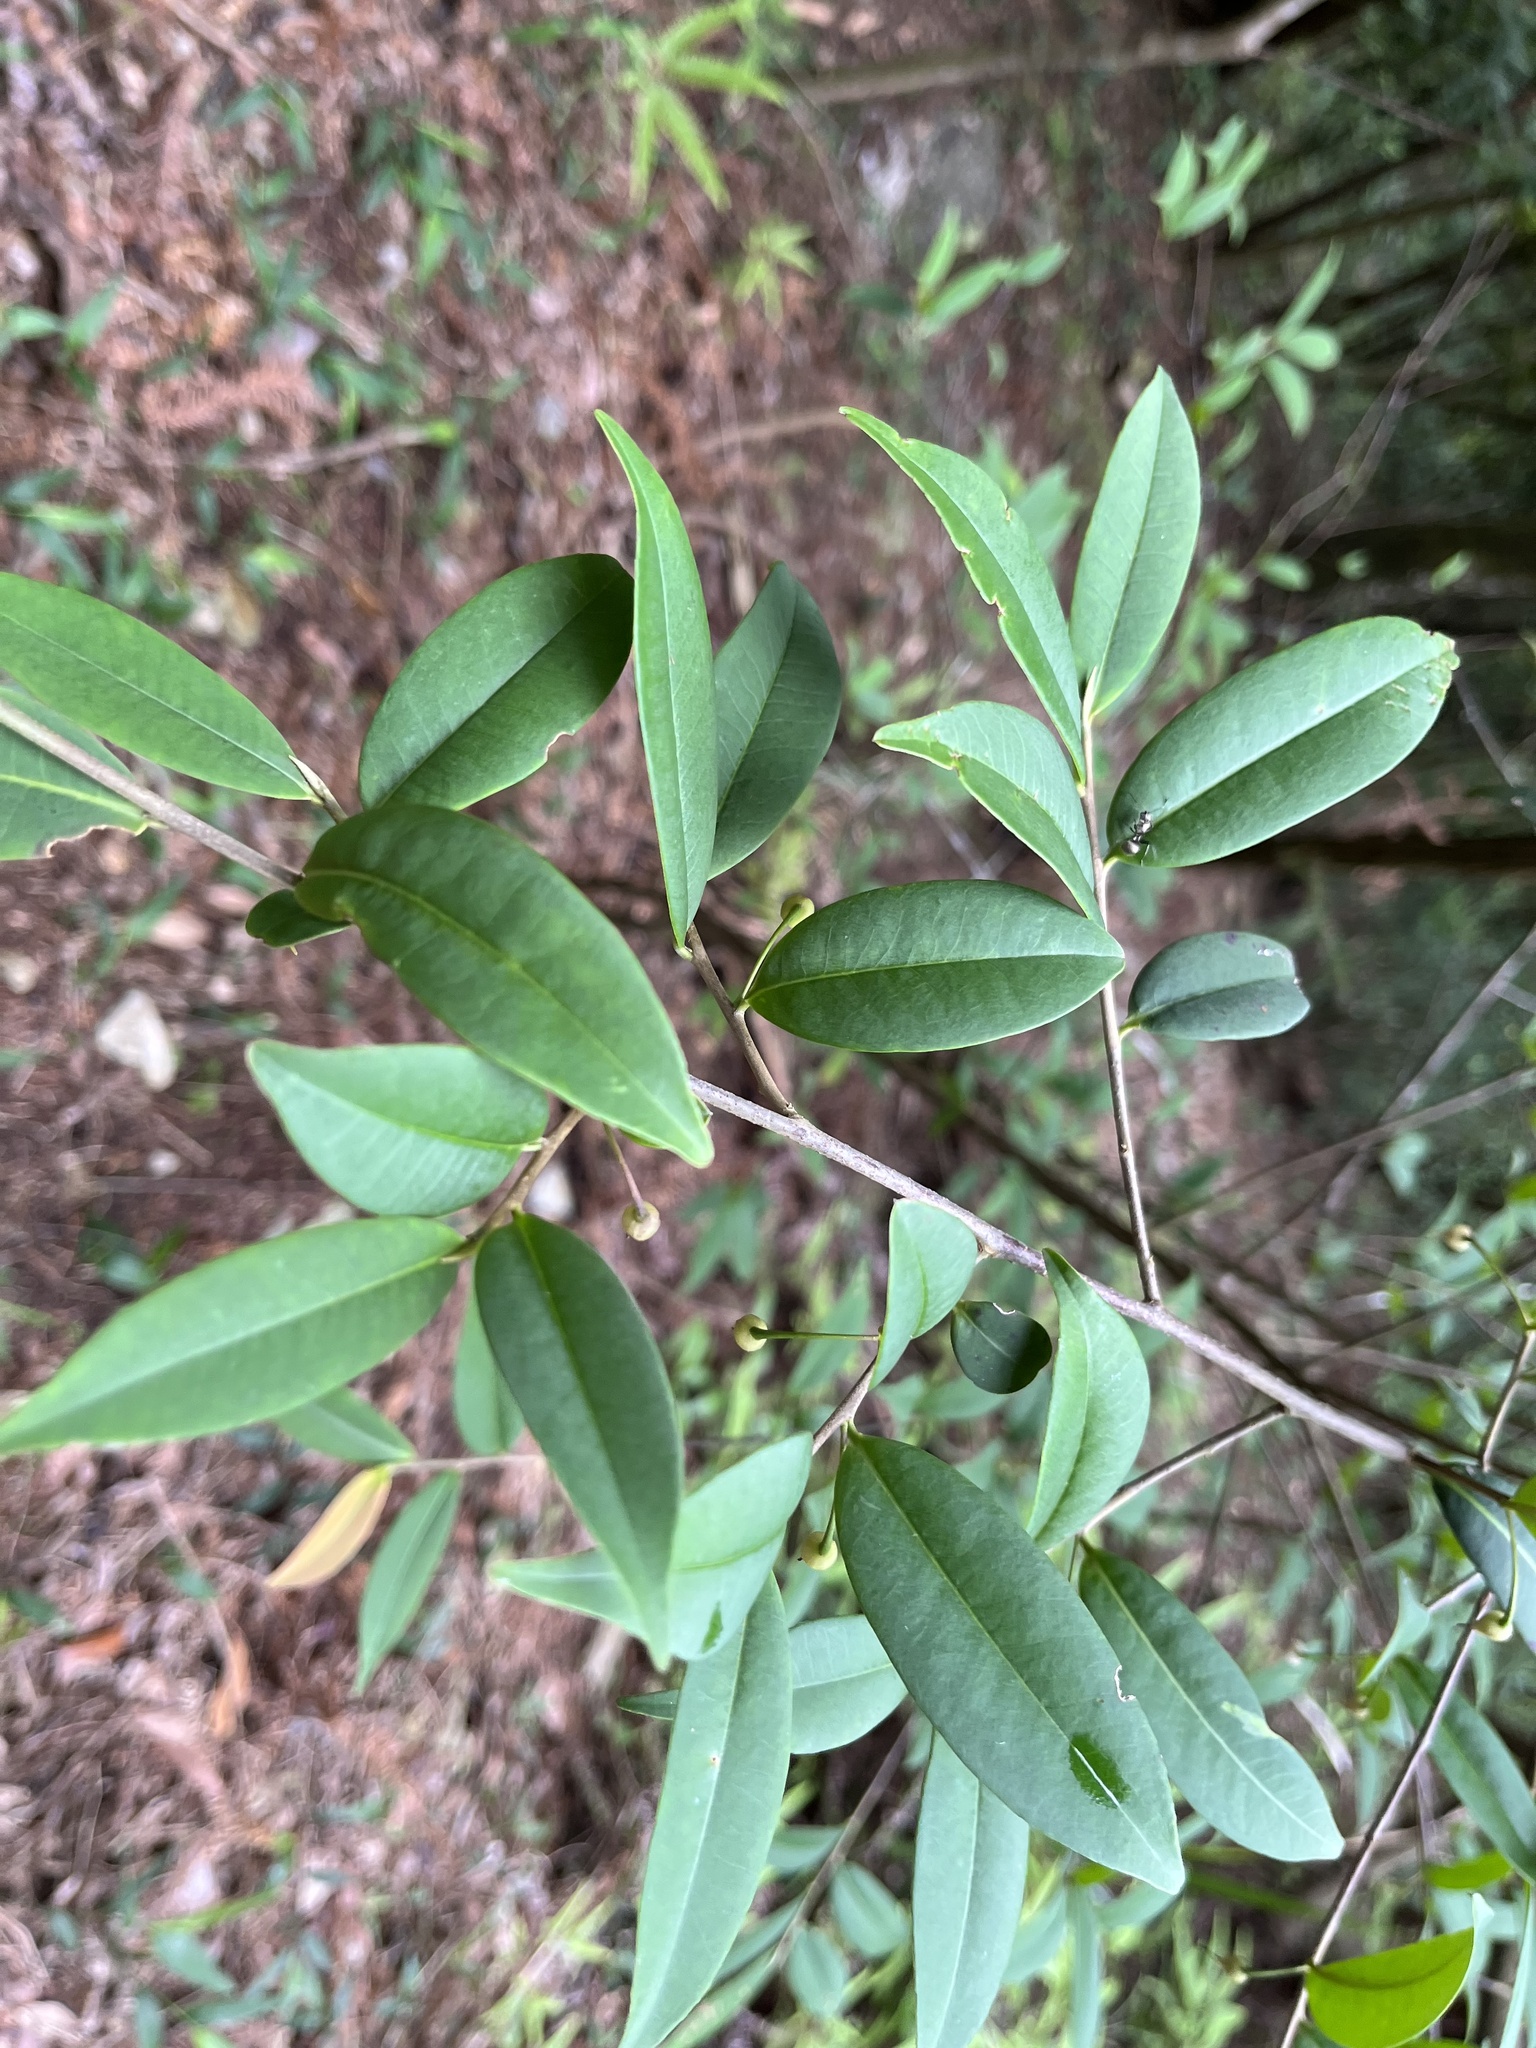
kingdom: Plantae
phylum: Tracheophyta
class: Magnoliopsida
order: Ericales
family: Pentaphylacaceae
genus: Adinandra
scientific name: Adinandra formosana
